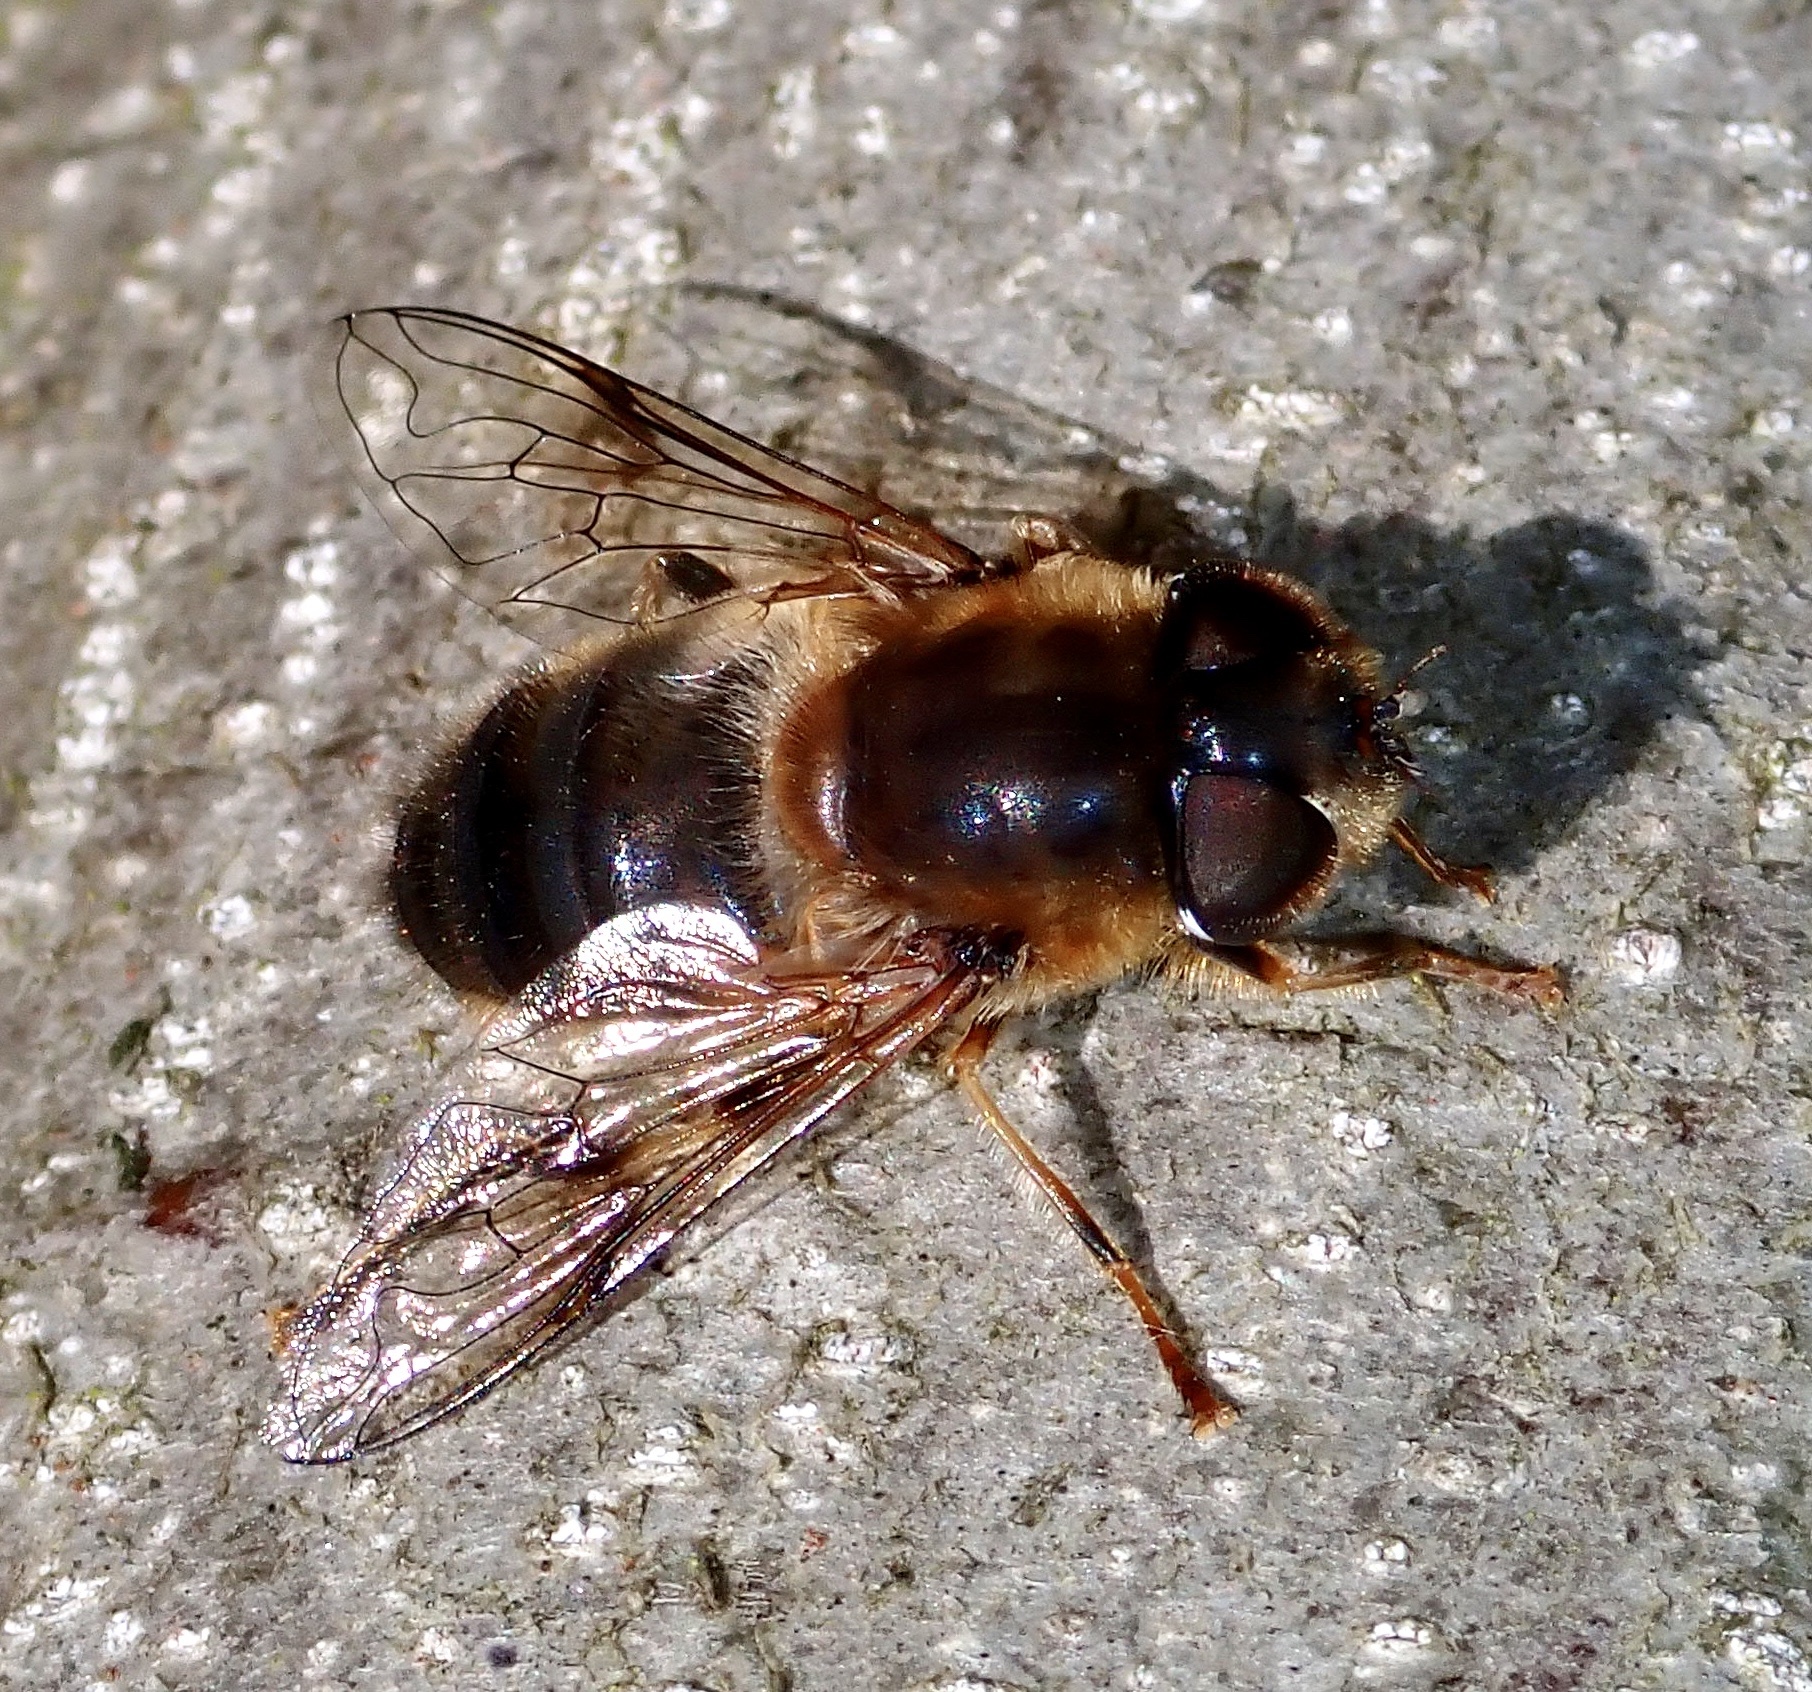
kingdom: Animalia
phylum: Arthropoda
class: Insecta
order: Diptera
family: Syrphidae
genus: Eristalis
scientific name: Eristalis pertinax
